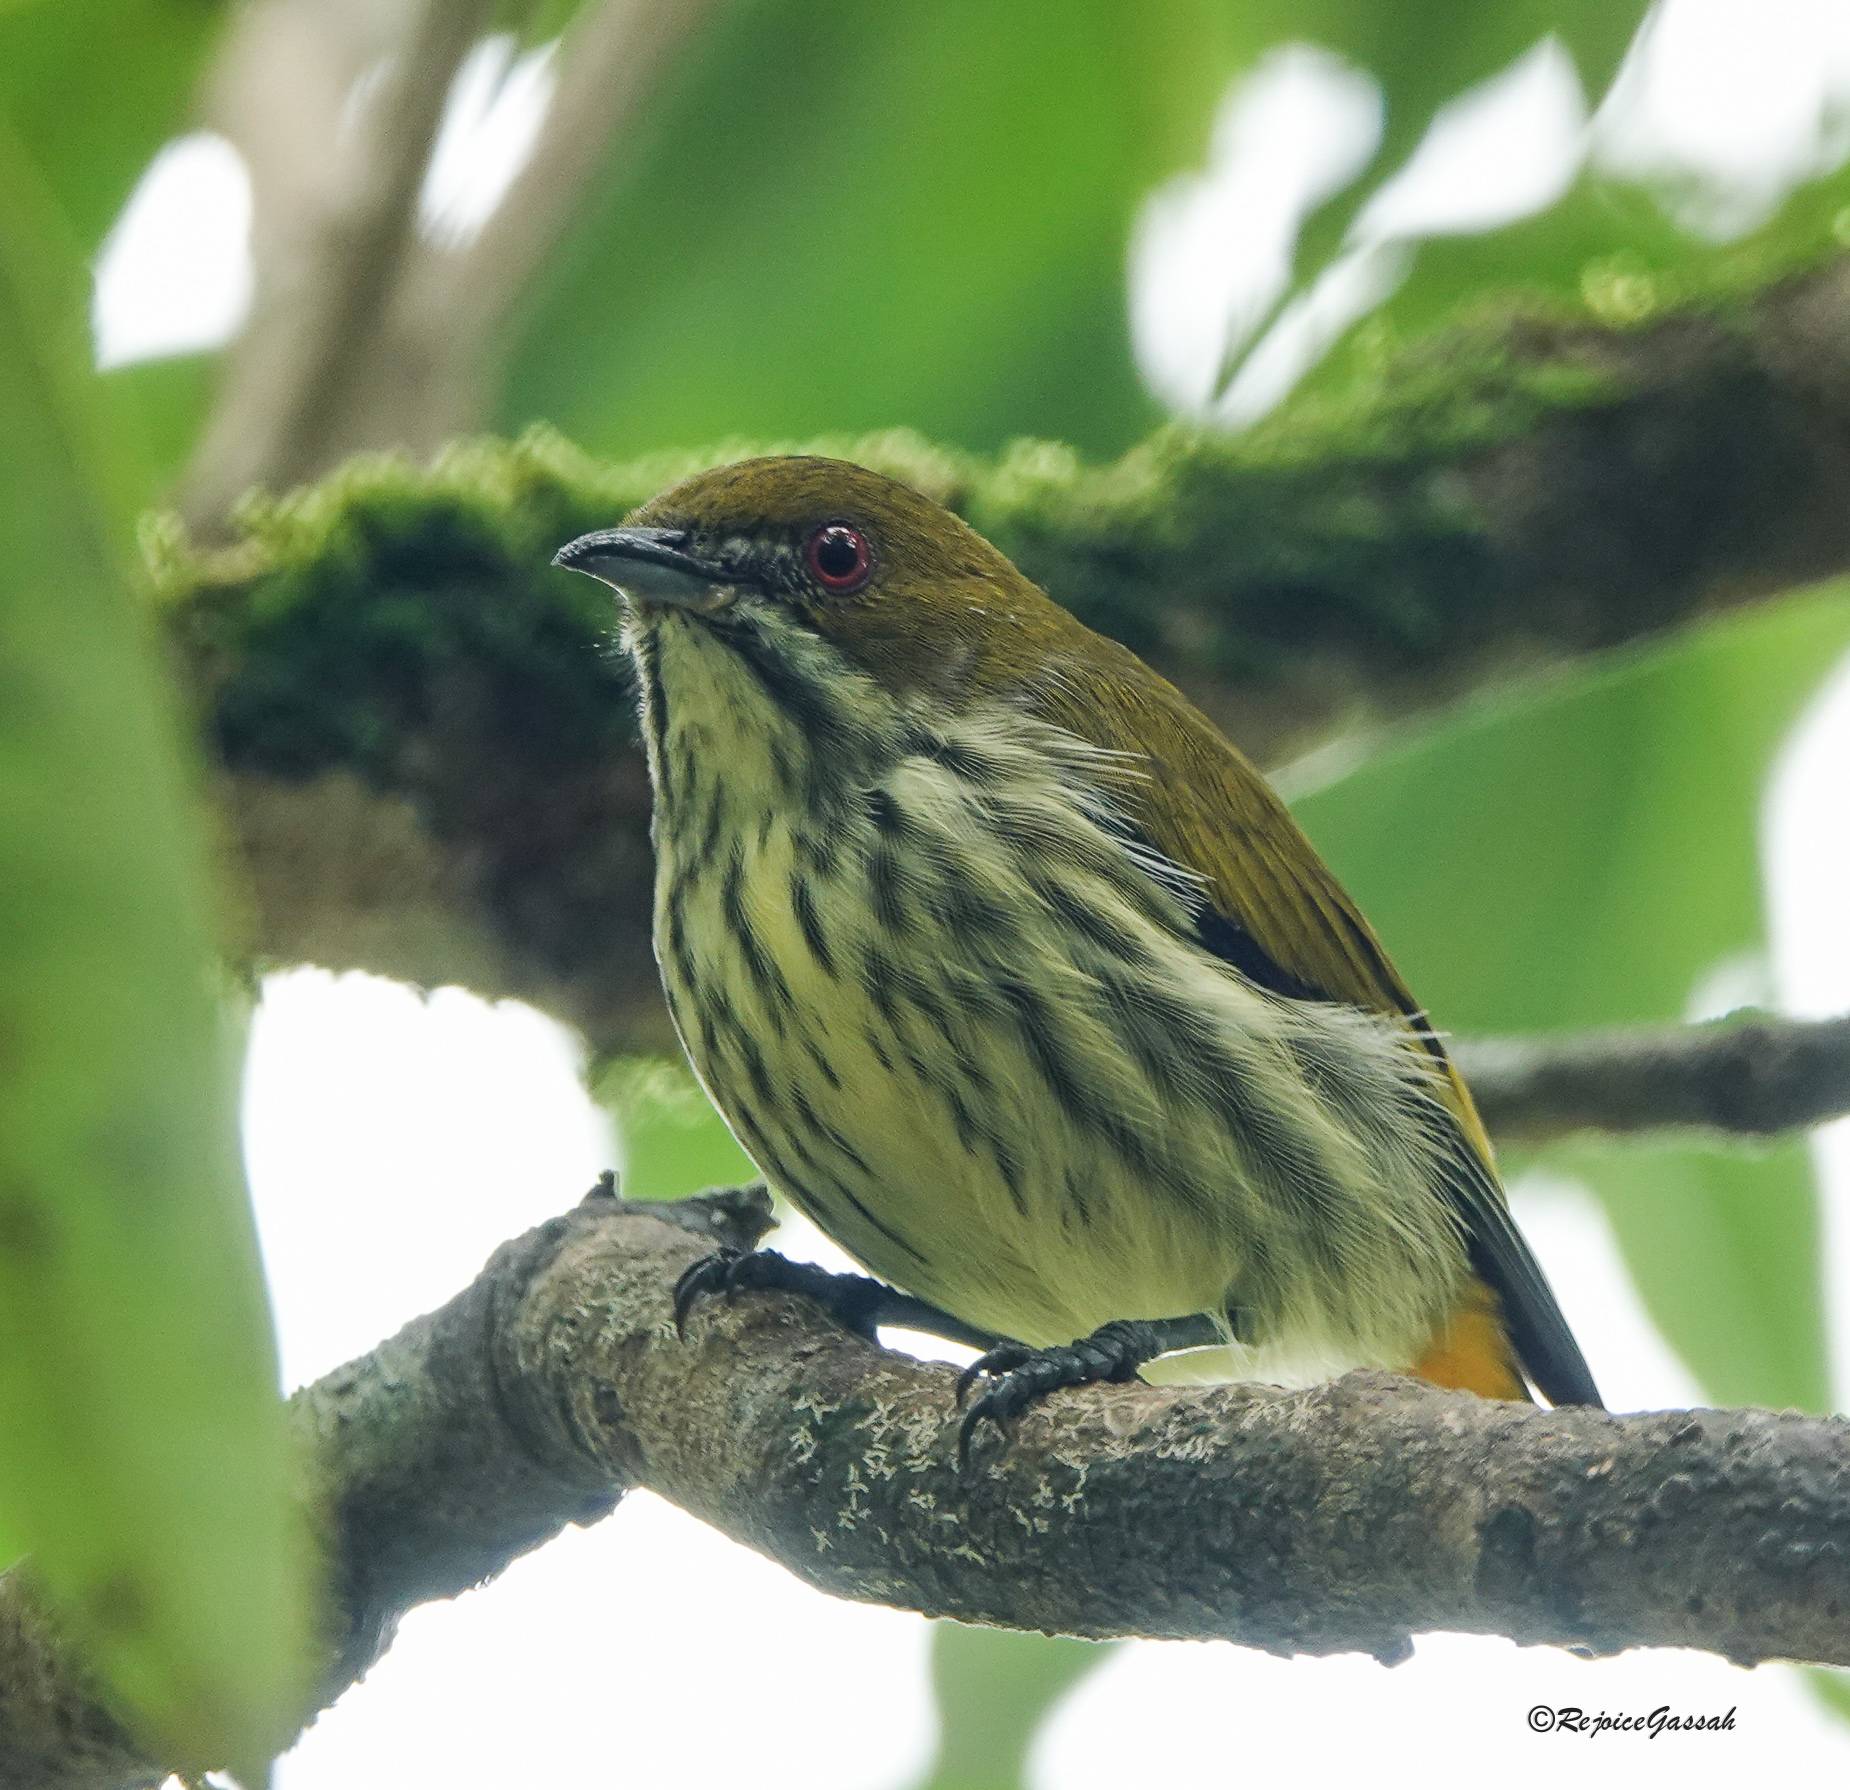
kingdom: Animalia
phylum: Chordata
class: Aves
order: Passeriformes
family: Dicaeidae
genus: Dicaeum
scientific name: Dicaeum chrysorrheum
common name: Yellow-vented flowerpecker
